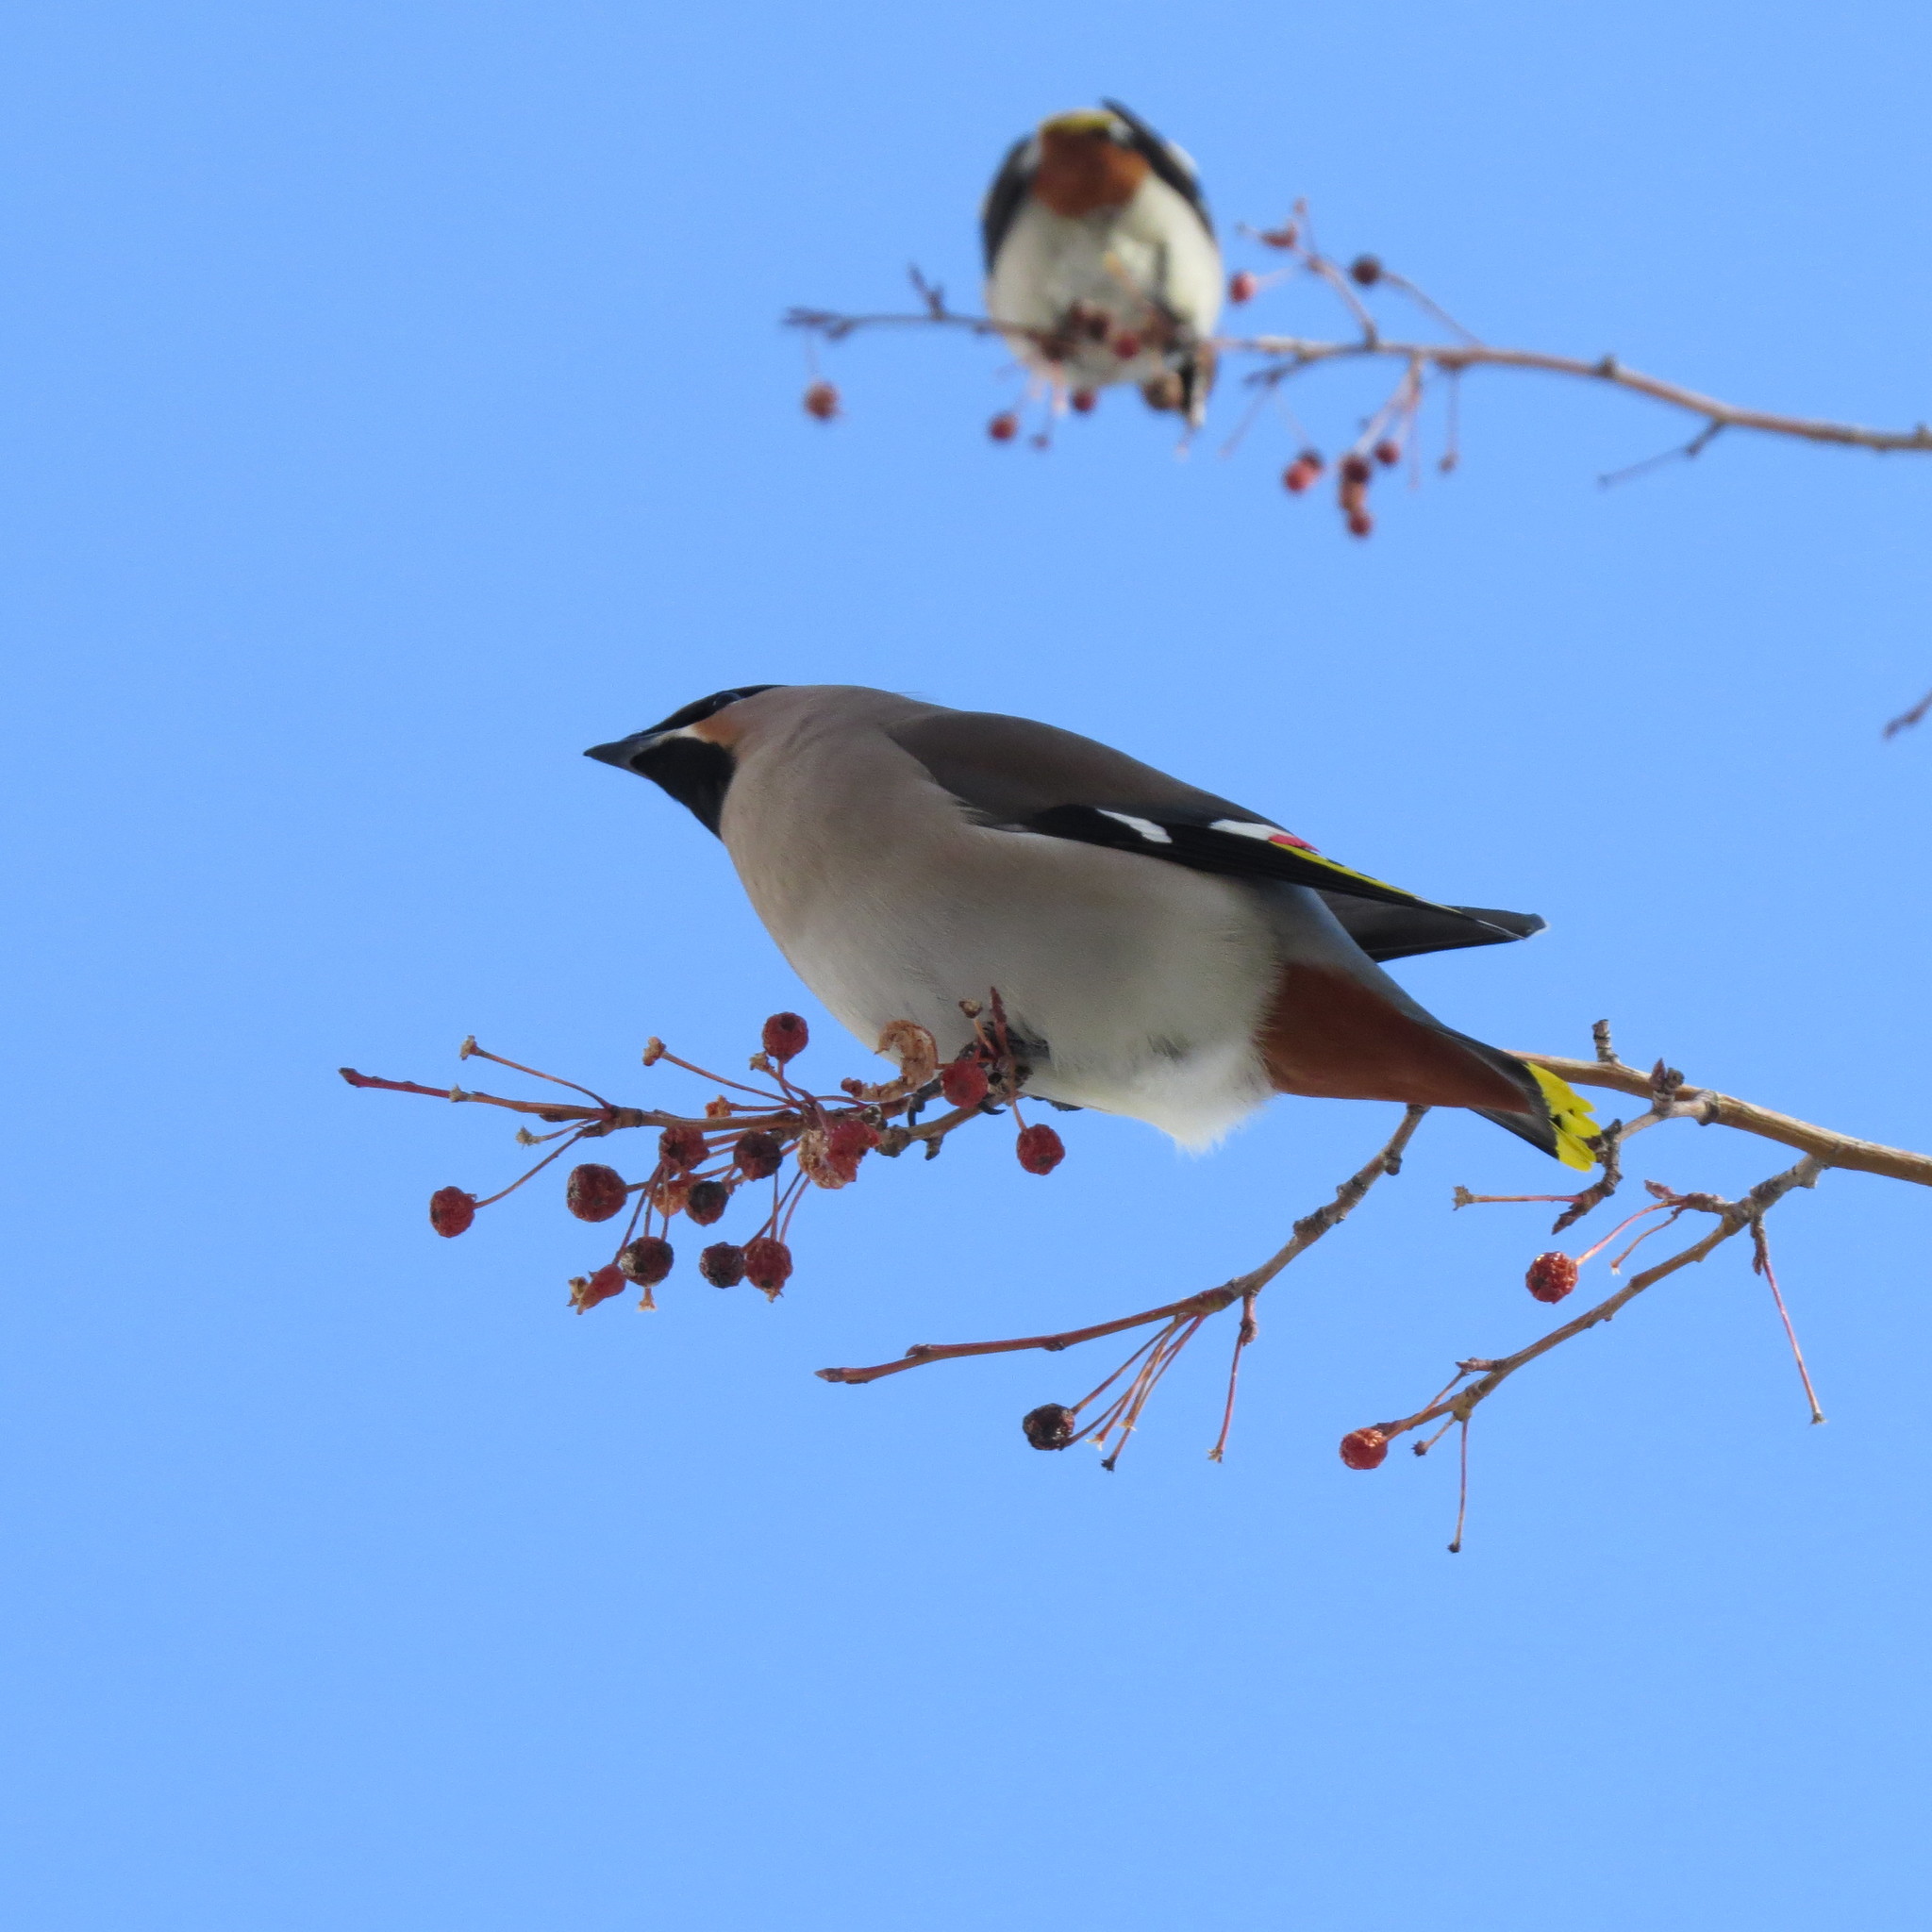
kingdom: Animalia
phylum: Chordata
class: Aves
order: Passeriformes
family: Bombycillidae
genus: Bombycilla
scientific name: Bombycilla garrulus
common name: Bohemian waxwing
